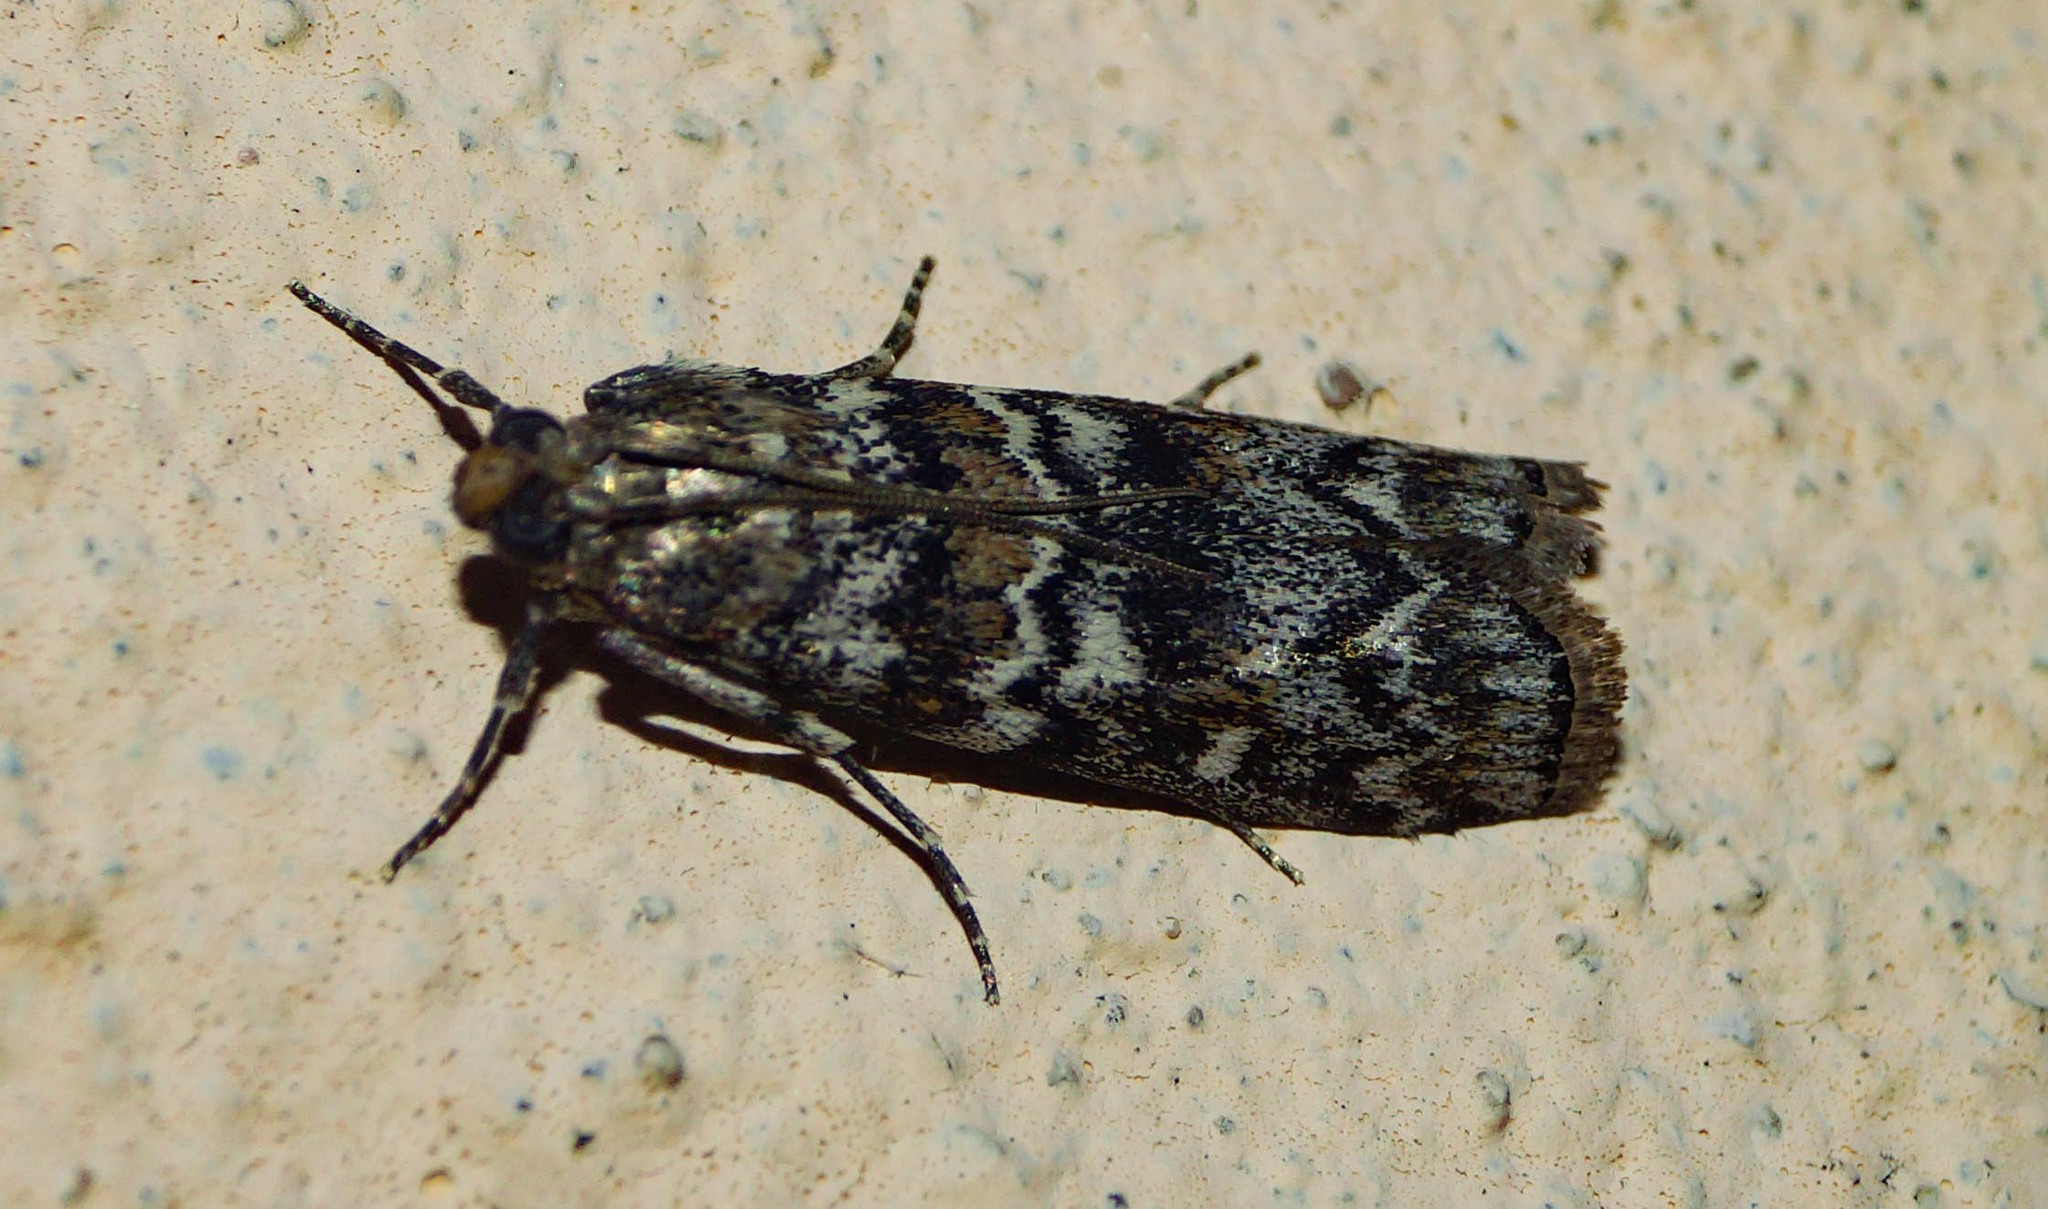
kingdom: Animalia
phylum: Arthropoda
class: Insecta
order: Lepidoptera
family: Pyralidae
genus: Dioryctria
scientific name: Dioryctria abietella
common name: Dark pine knot-horn
